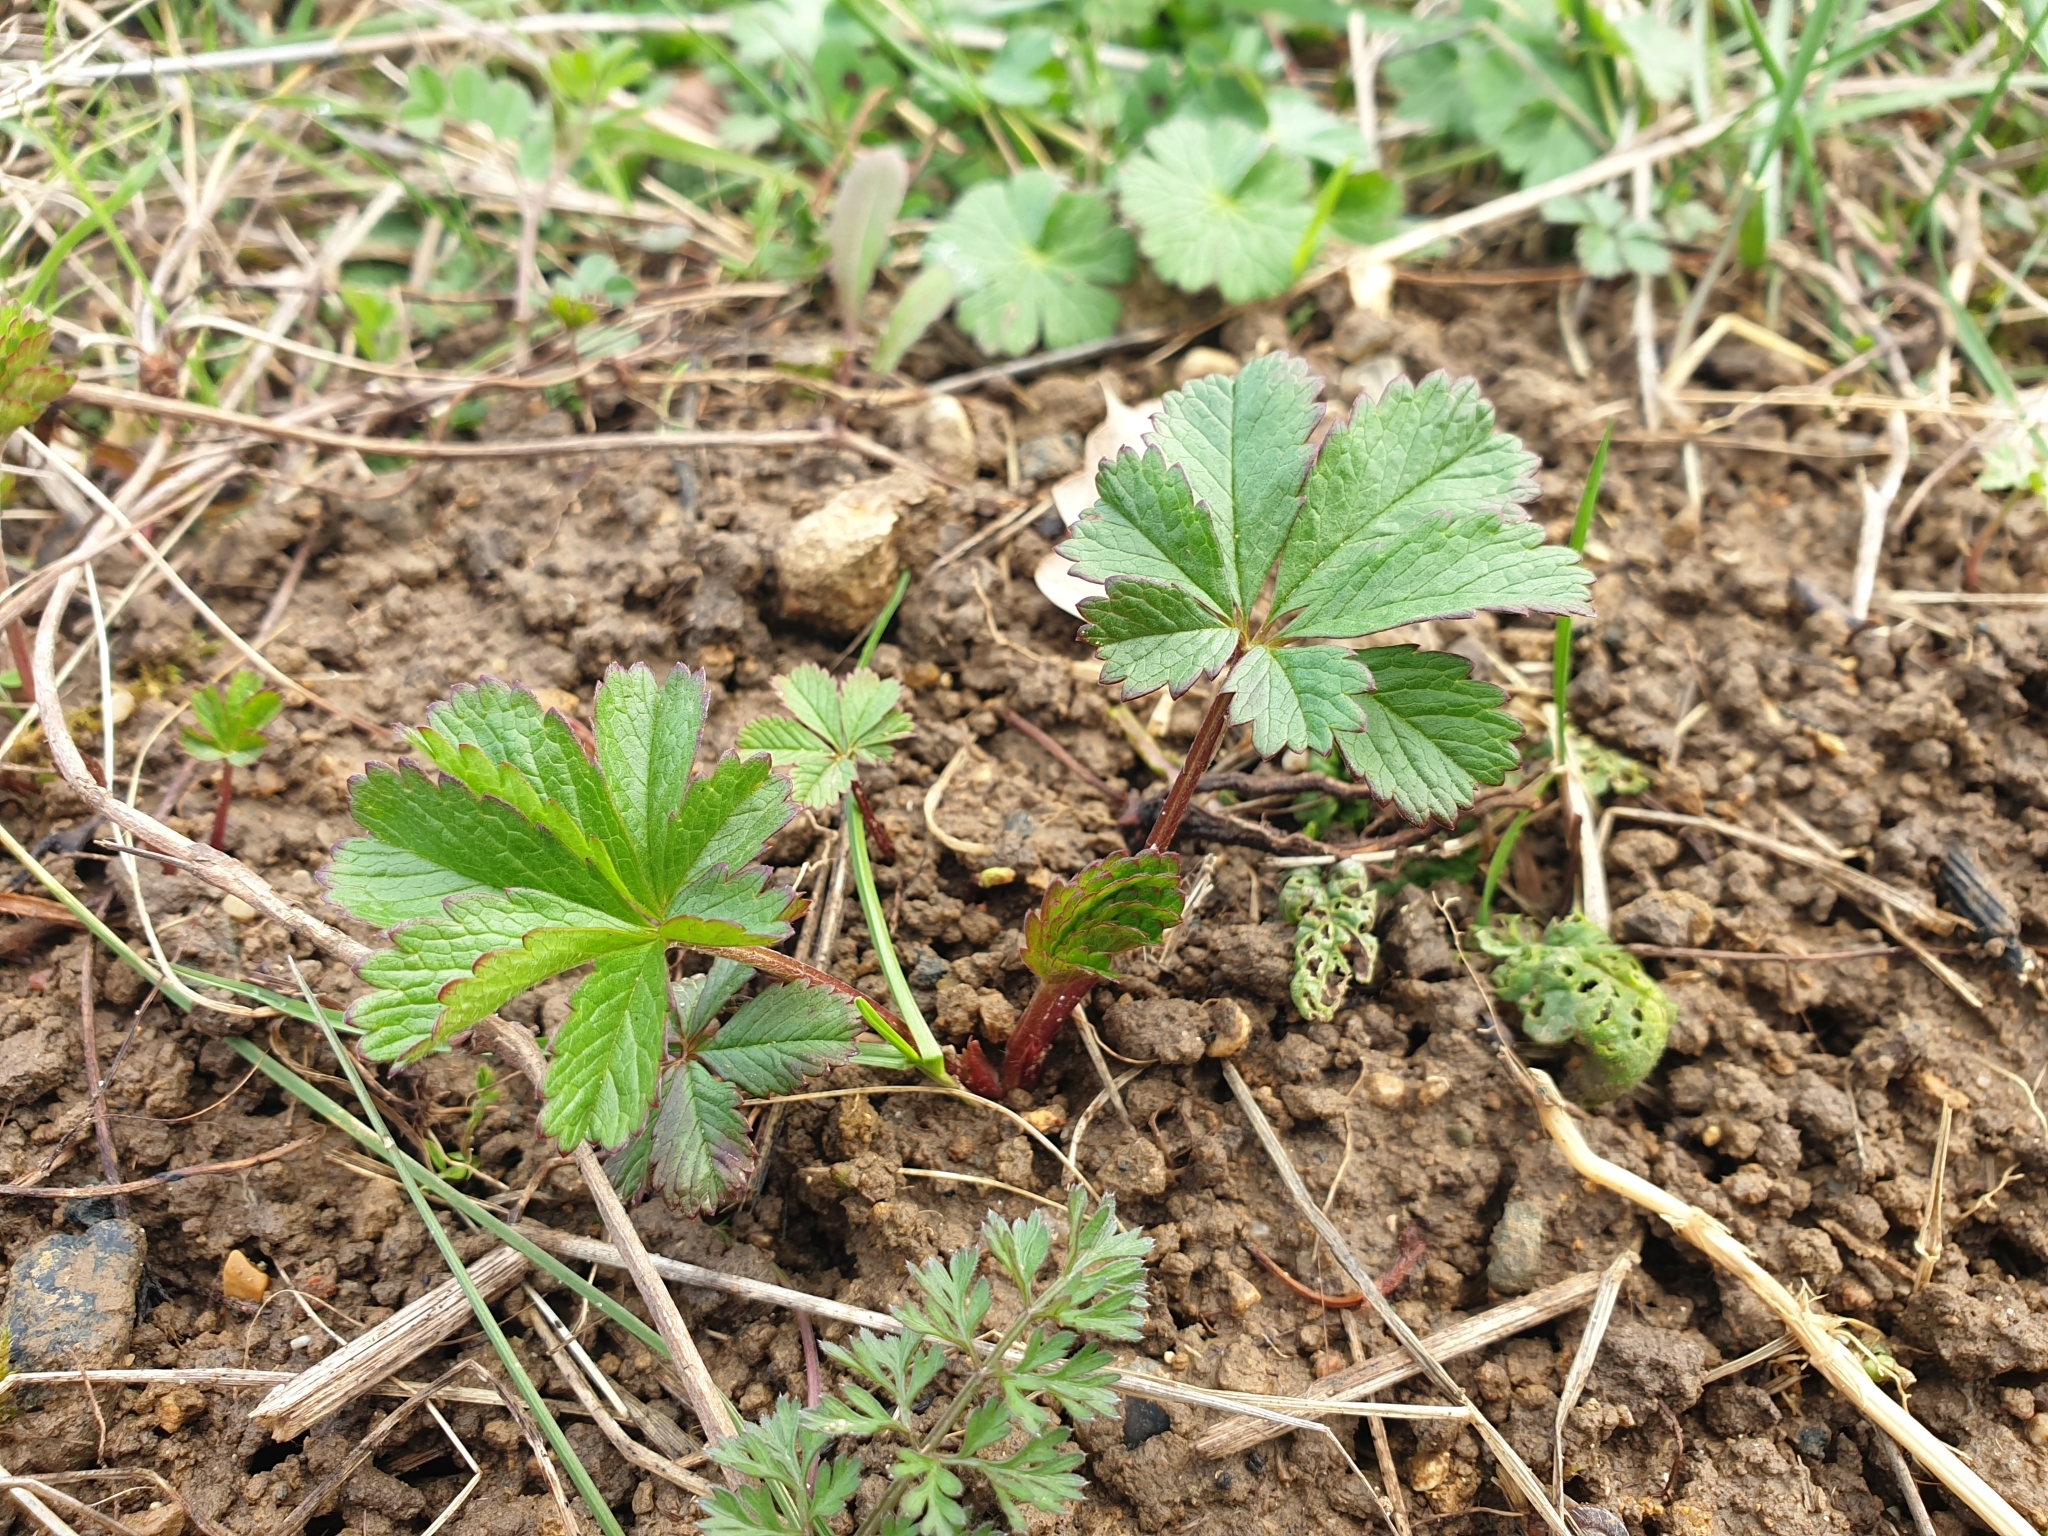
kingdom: Plantae
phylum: Tracheophyta
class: Magnoliopsida
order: Rosales
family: Rosaceae
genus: Potentilla
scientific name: Potentilla reptans
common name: Creeping cinquefoil
